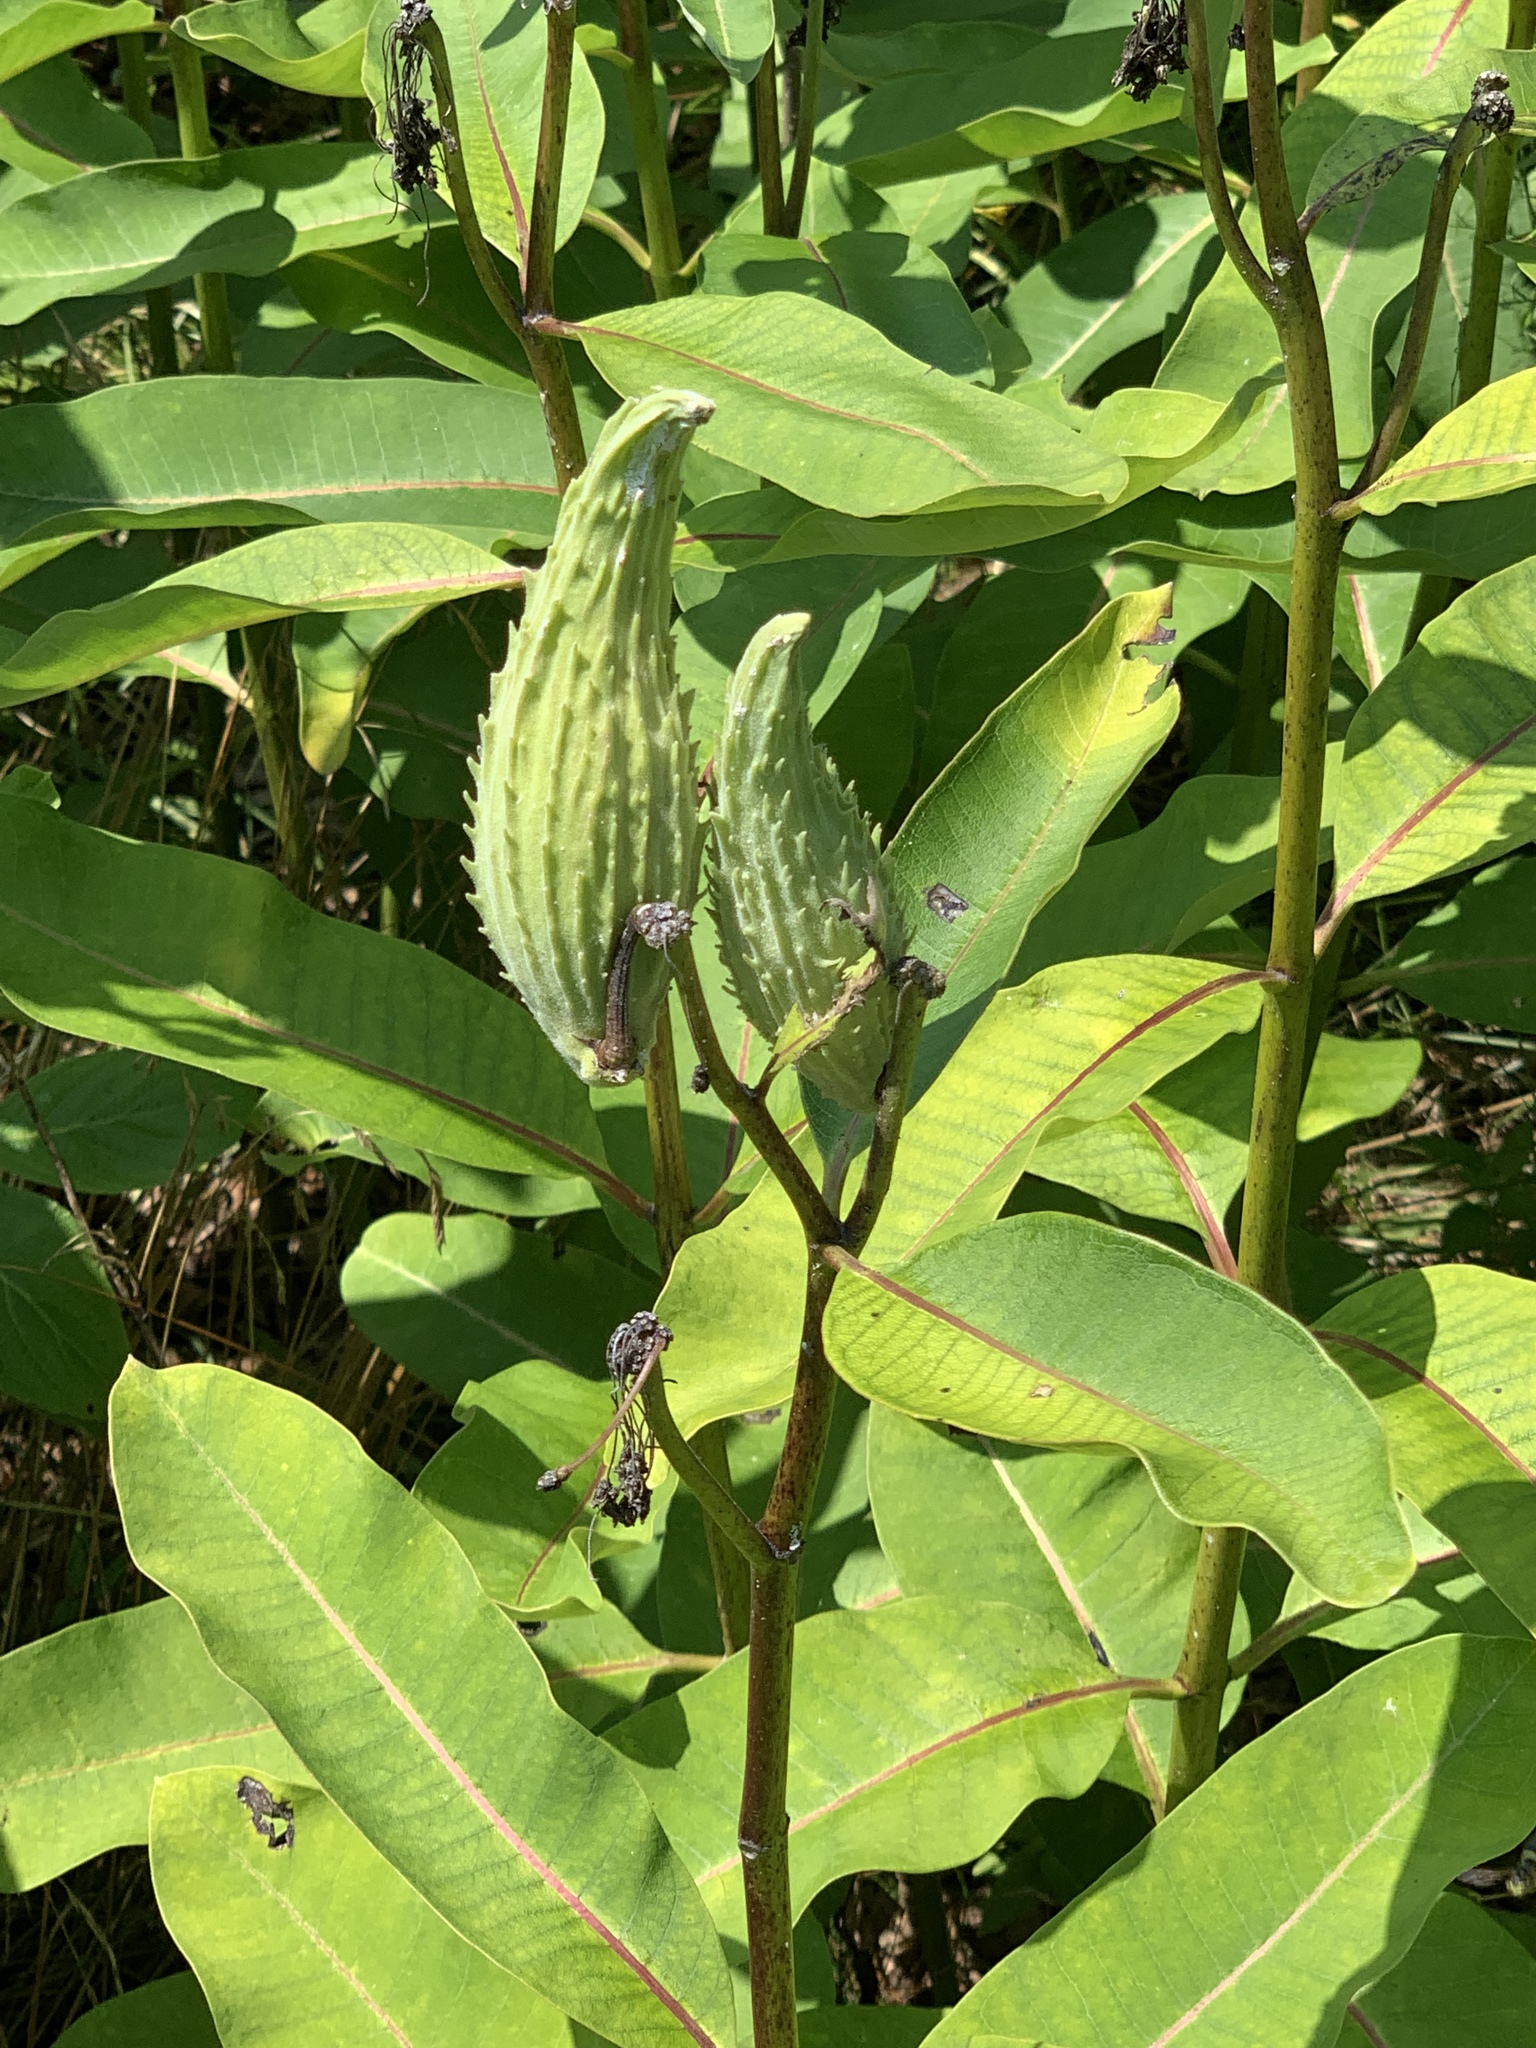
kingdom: Plantae
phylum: Tracheophyta
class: Magnoliopsida
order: Gentianales
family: Apocynaceae
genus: Asclepias
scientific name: Asclepias syriaca
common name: Common milkweed
